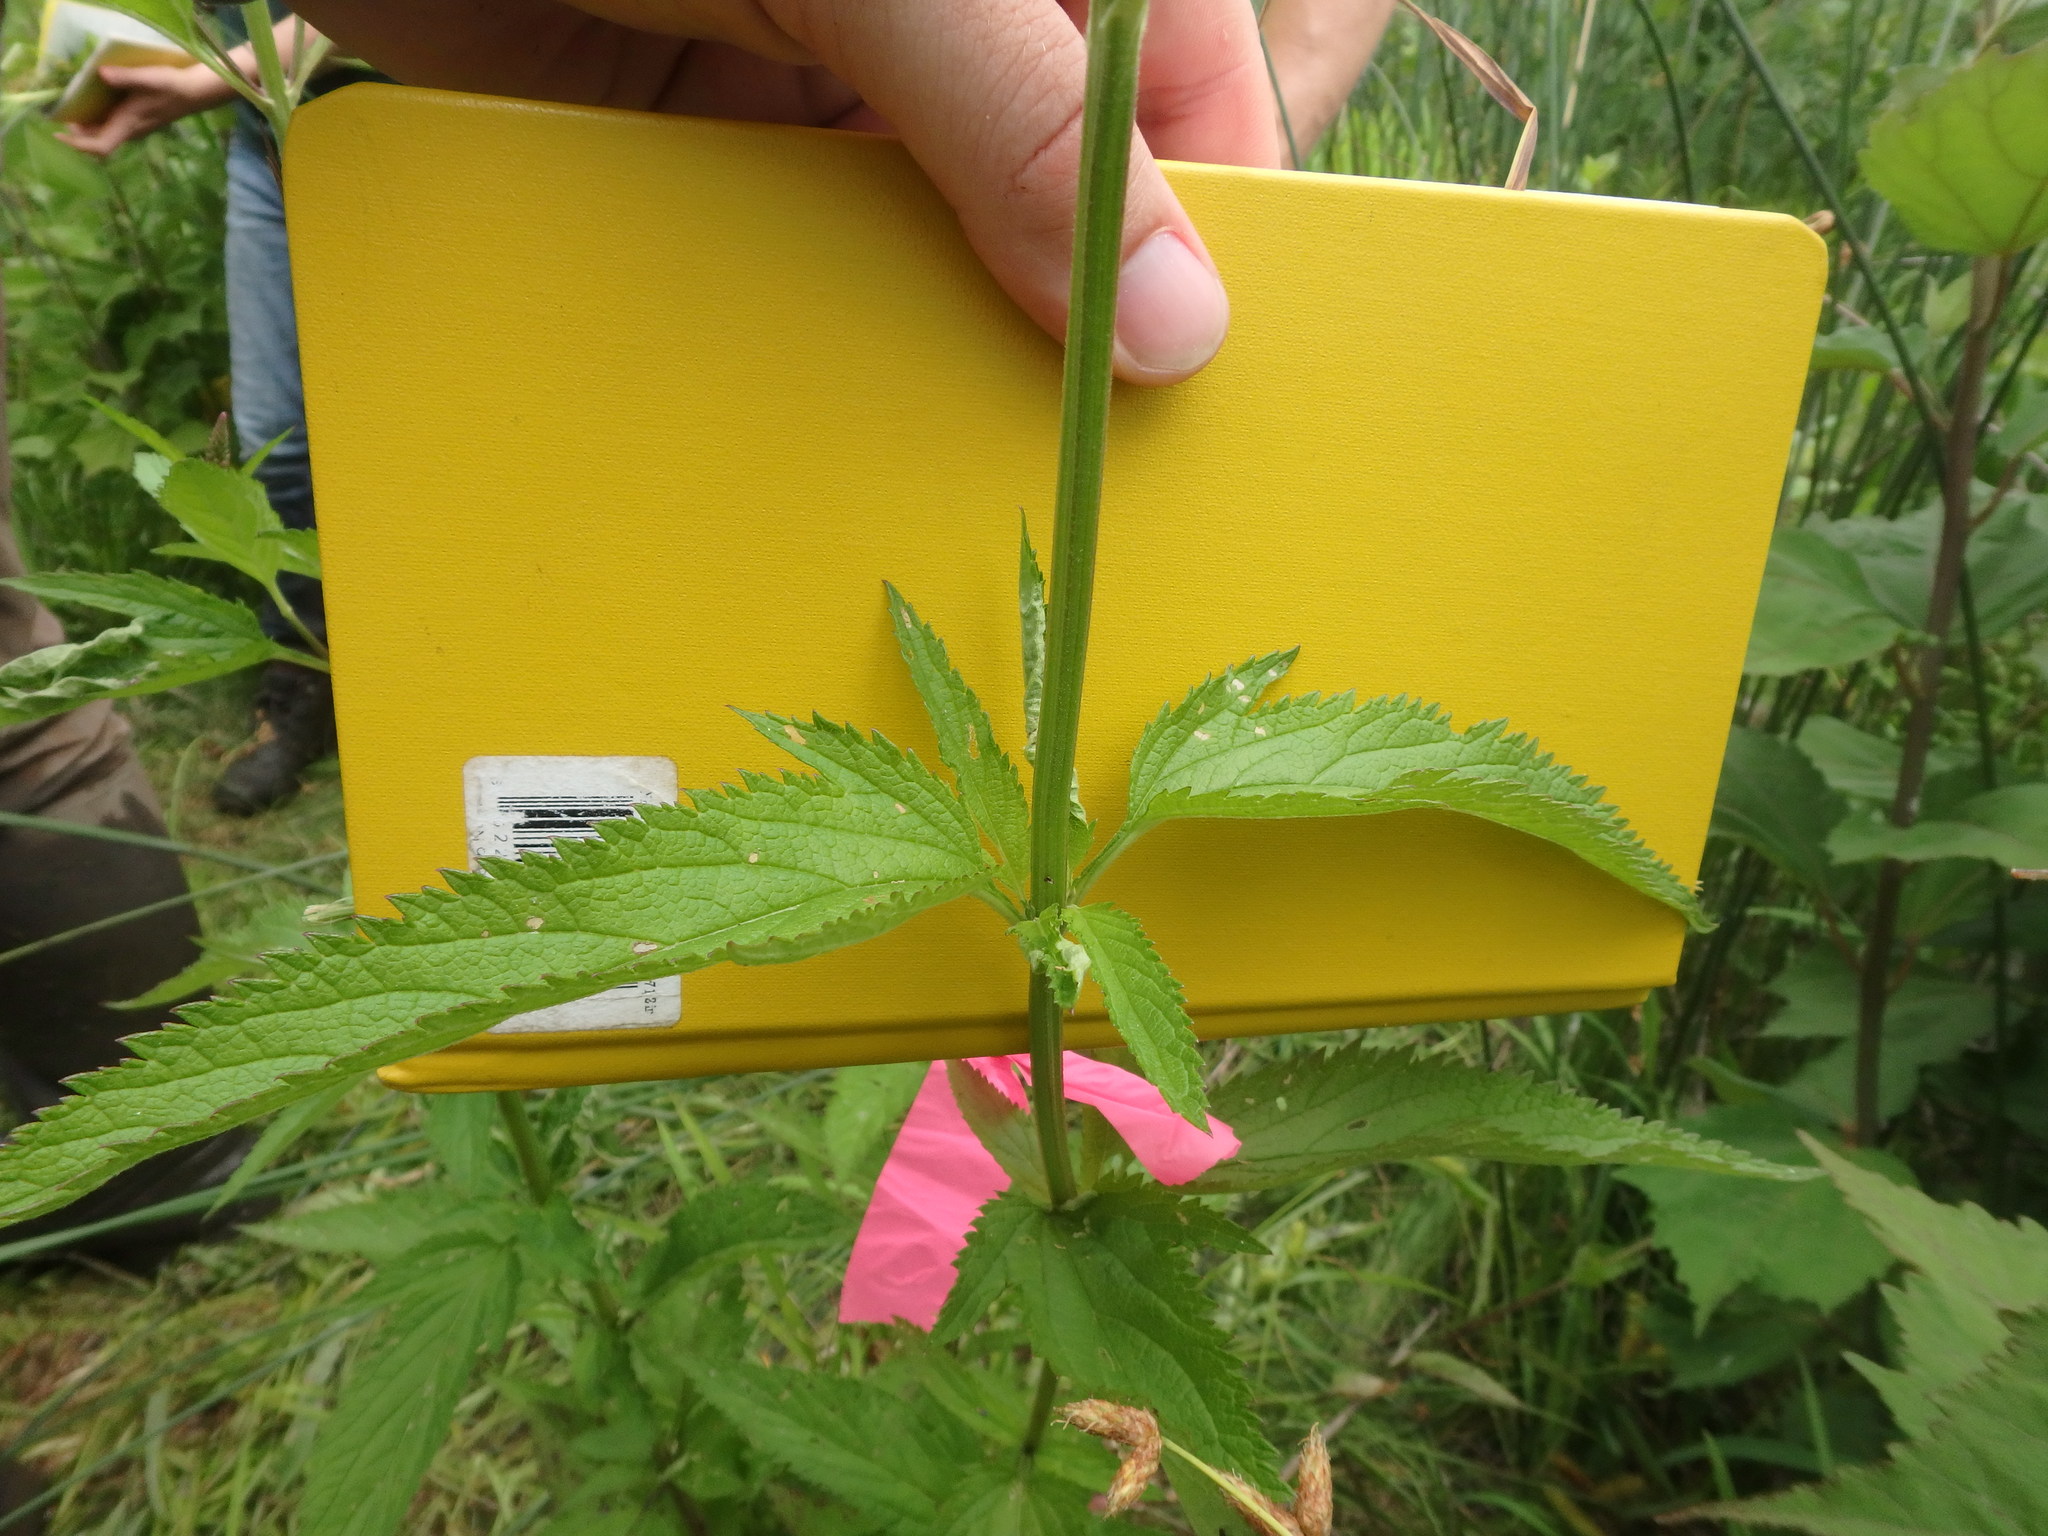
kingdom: Plantae
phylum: Tracheophyta
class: Magnoliopsida
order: Lamiales
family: Verbenaceae
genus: Verbena
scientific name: Verbena hastata
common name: American blue vervain
